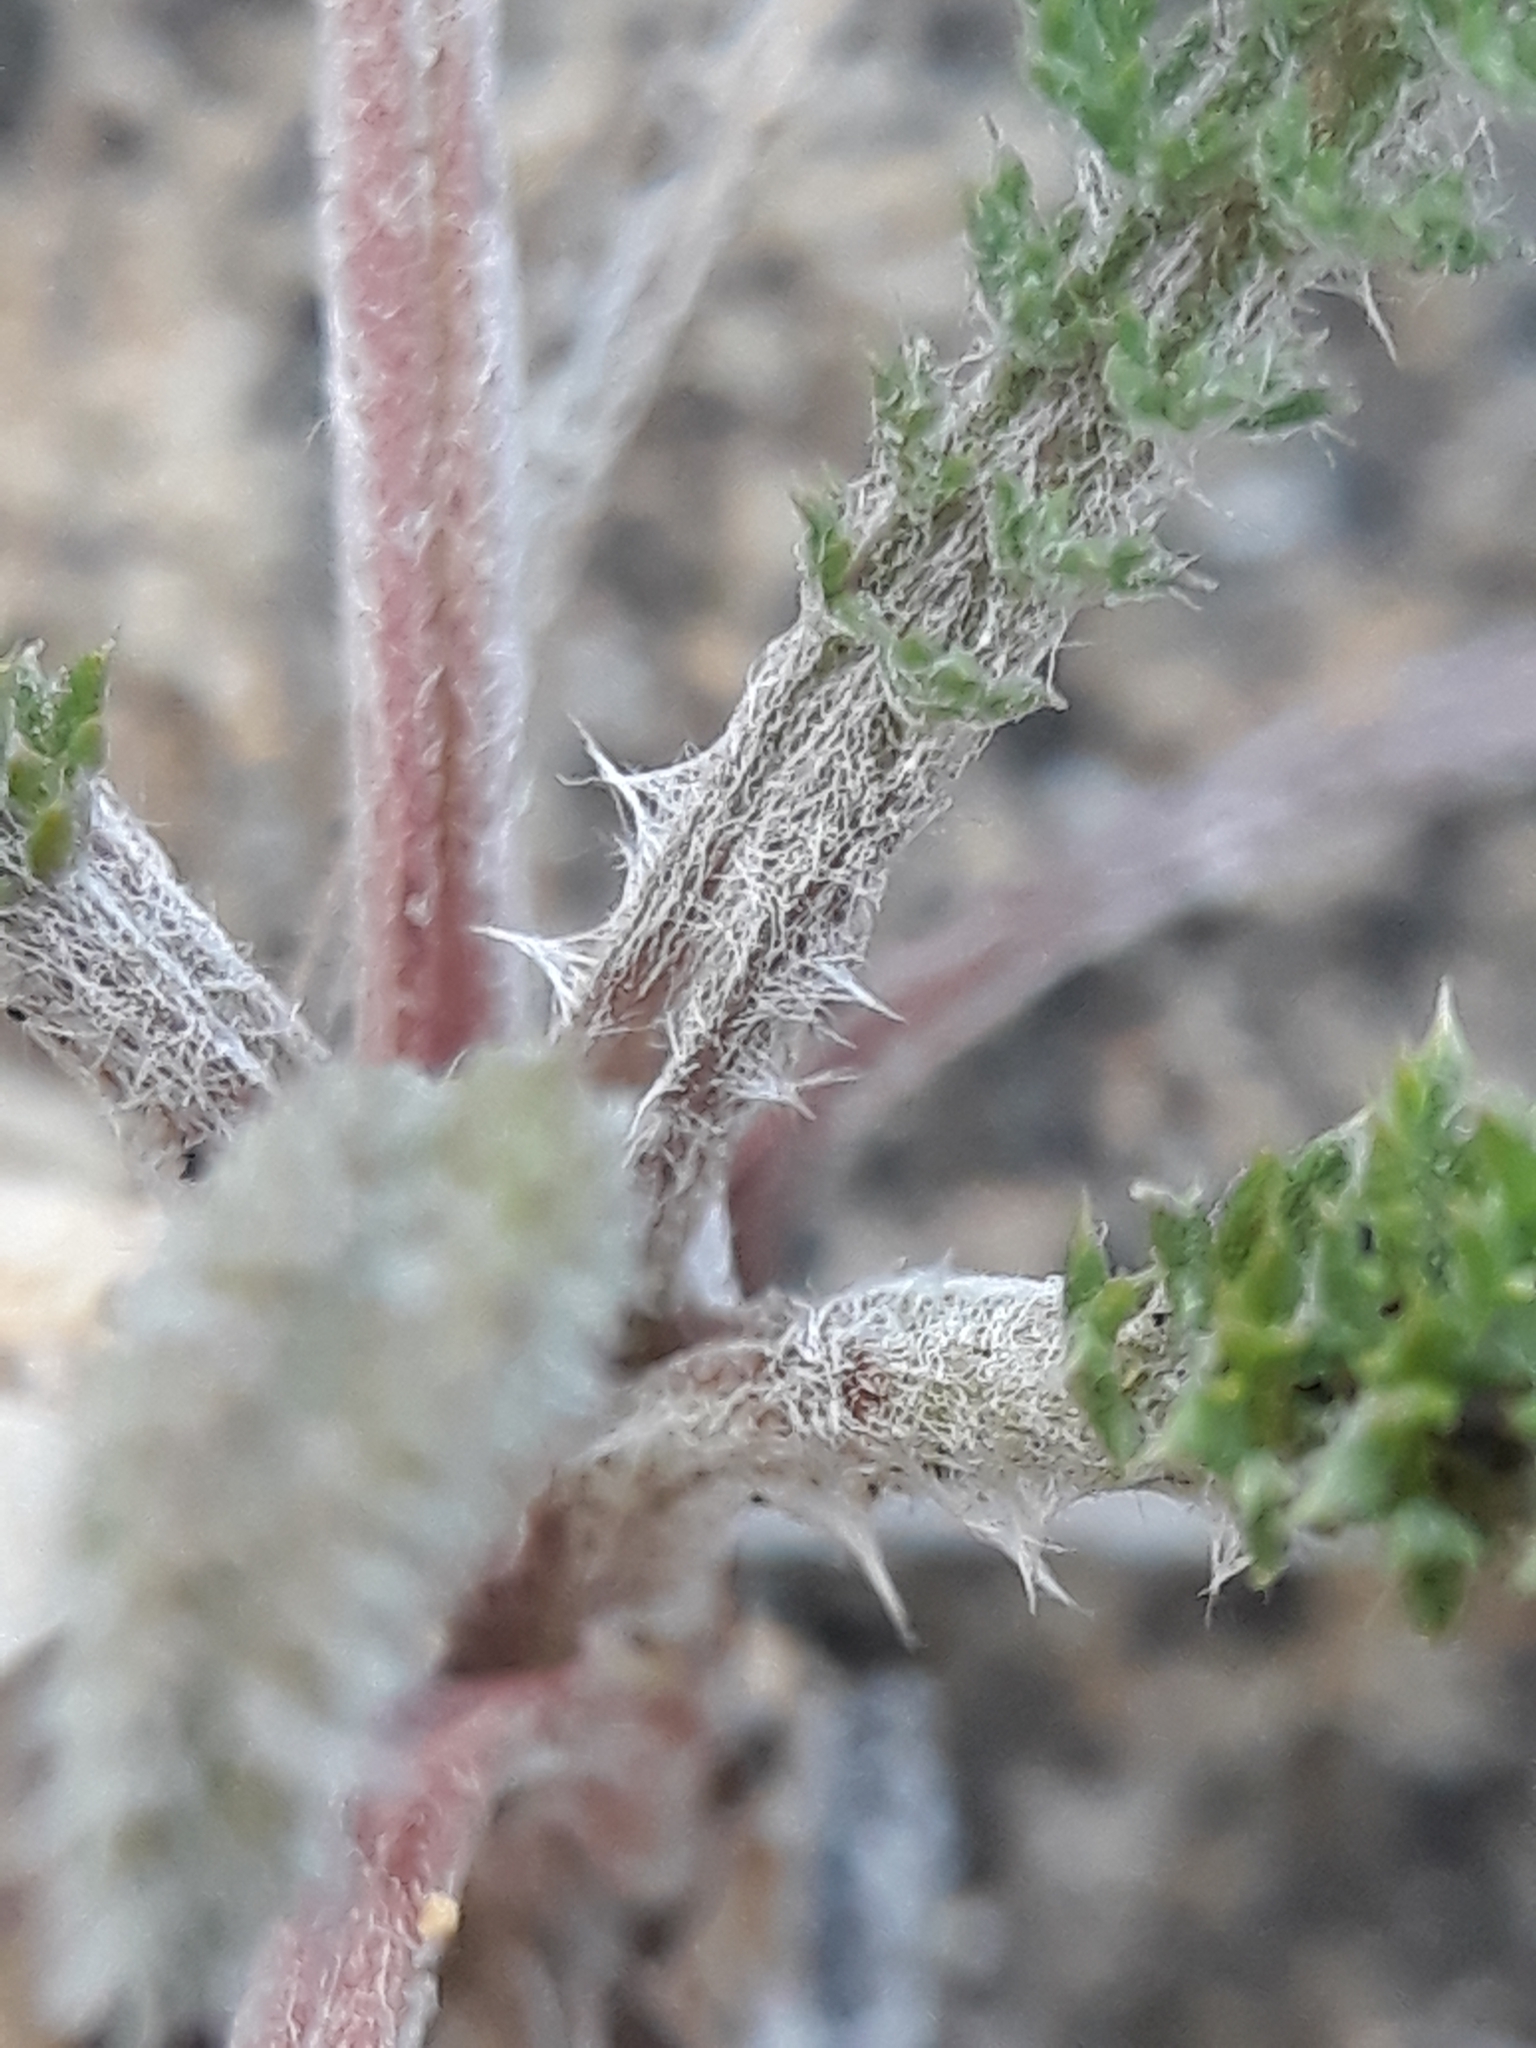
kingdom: Plantae
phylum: Tracheophyta
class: Magnoliopsida
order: Asterales
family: Asteraceae
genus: Achillea
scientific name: Achillea millefolium
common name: Yarrow
